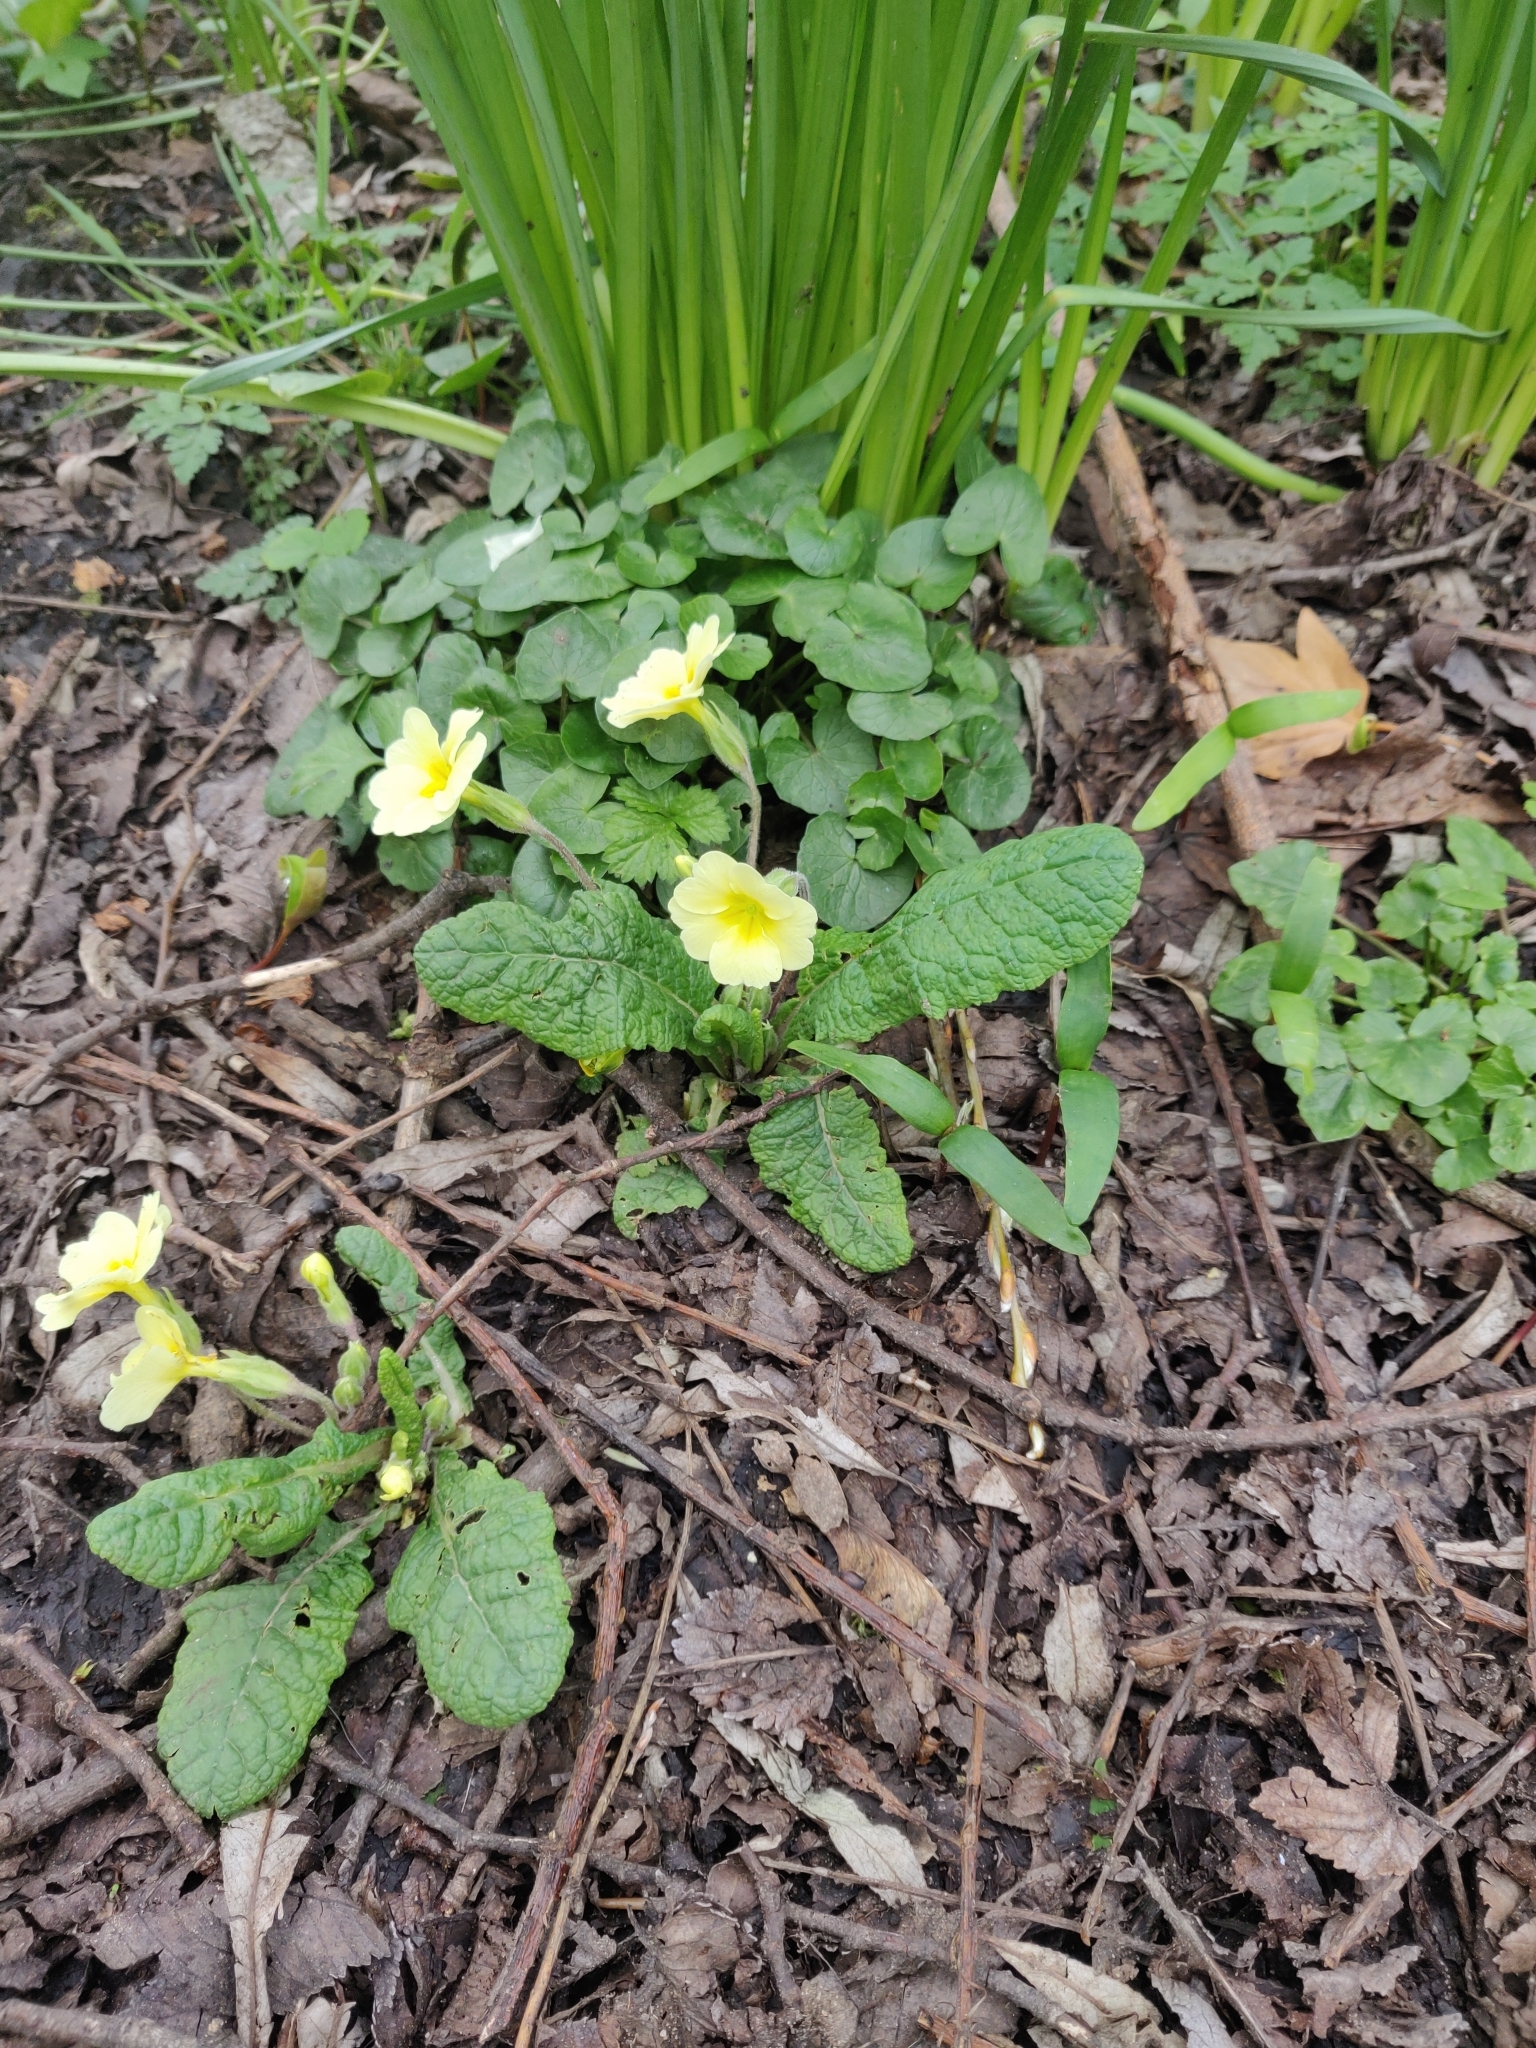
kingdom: Plantae
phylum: Tracheophyta
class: Magnoliopsida
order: Ericales
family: Primulaceae
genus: Primula
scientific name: Primula vulgaris
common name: Primrose
